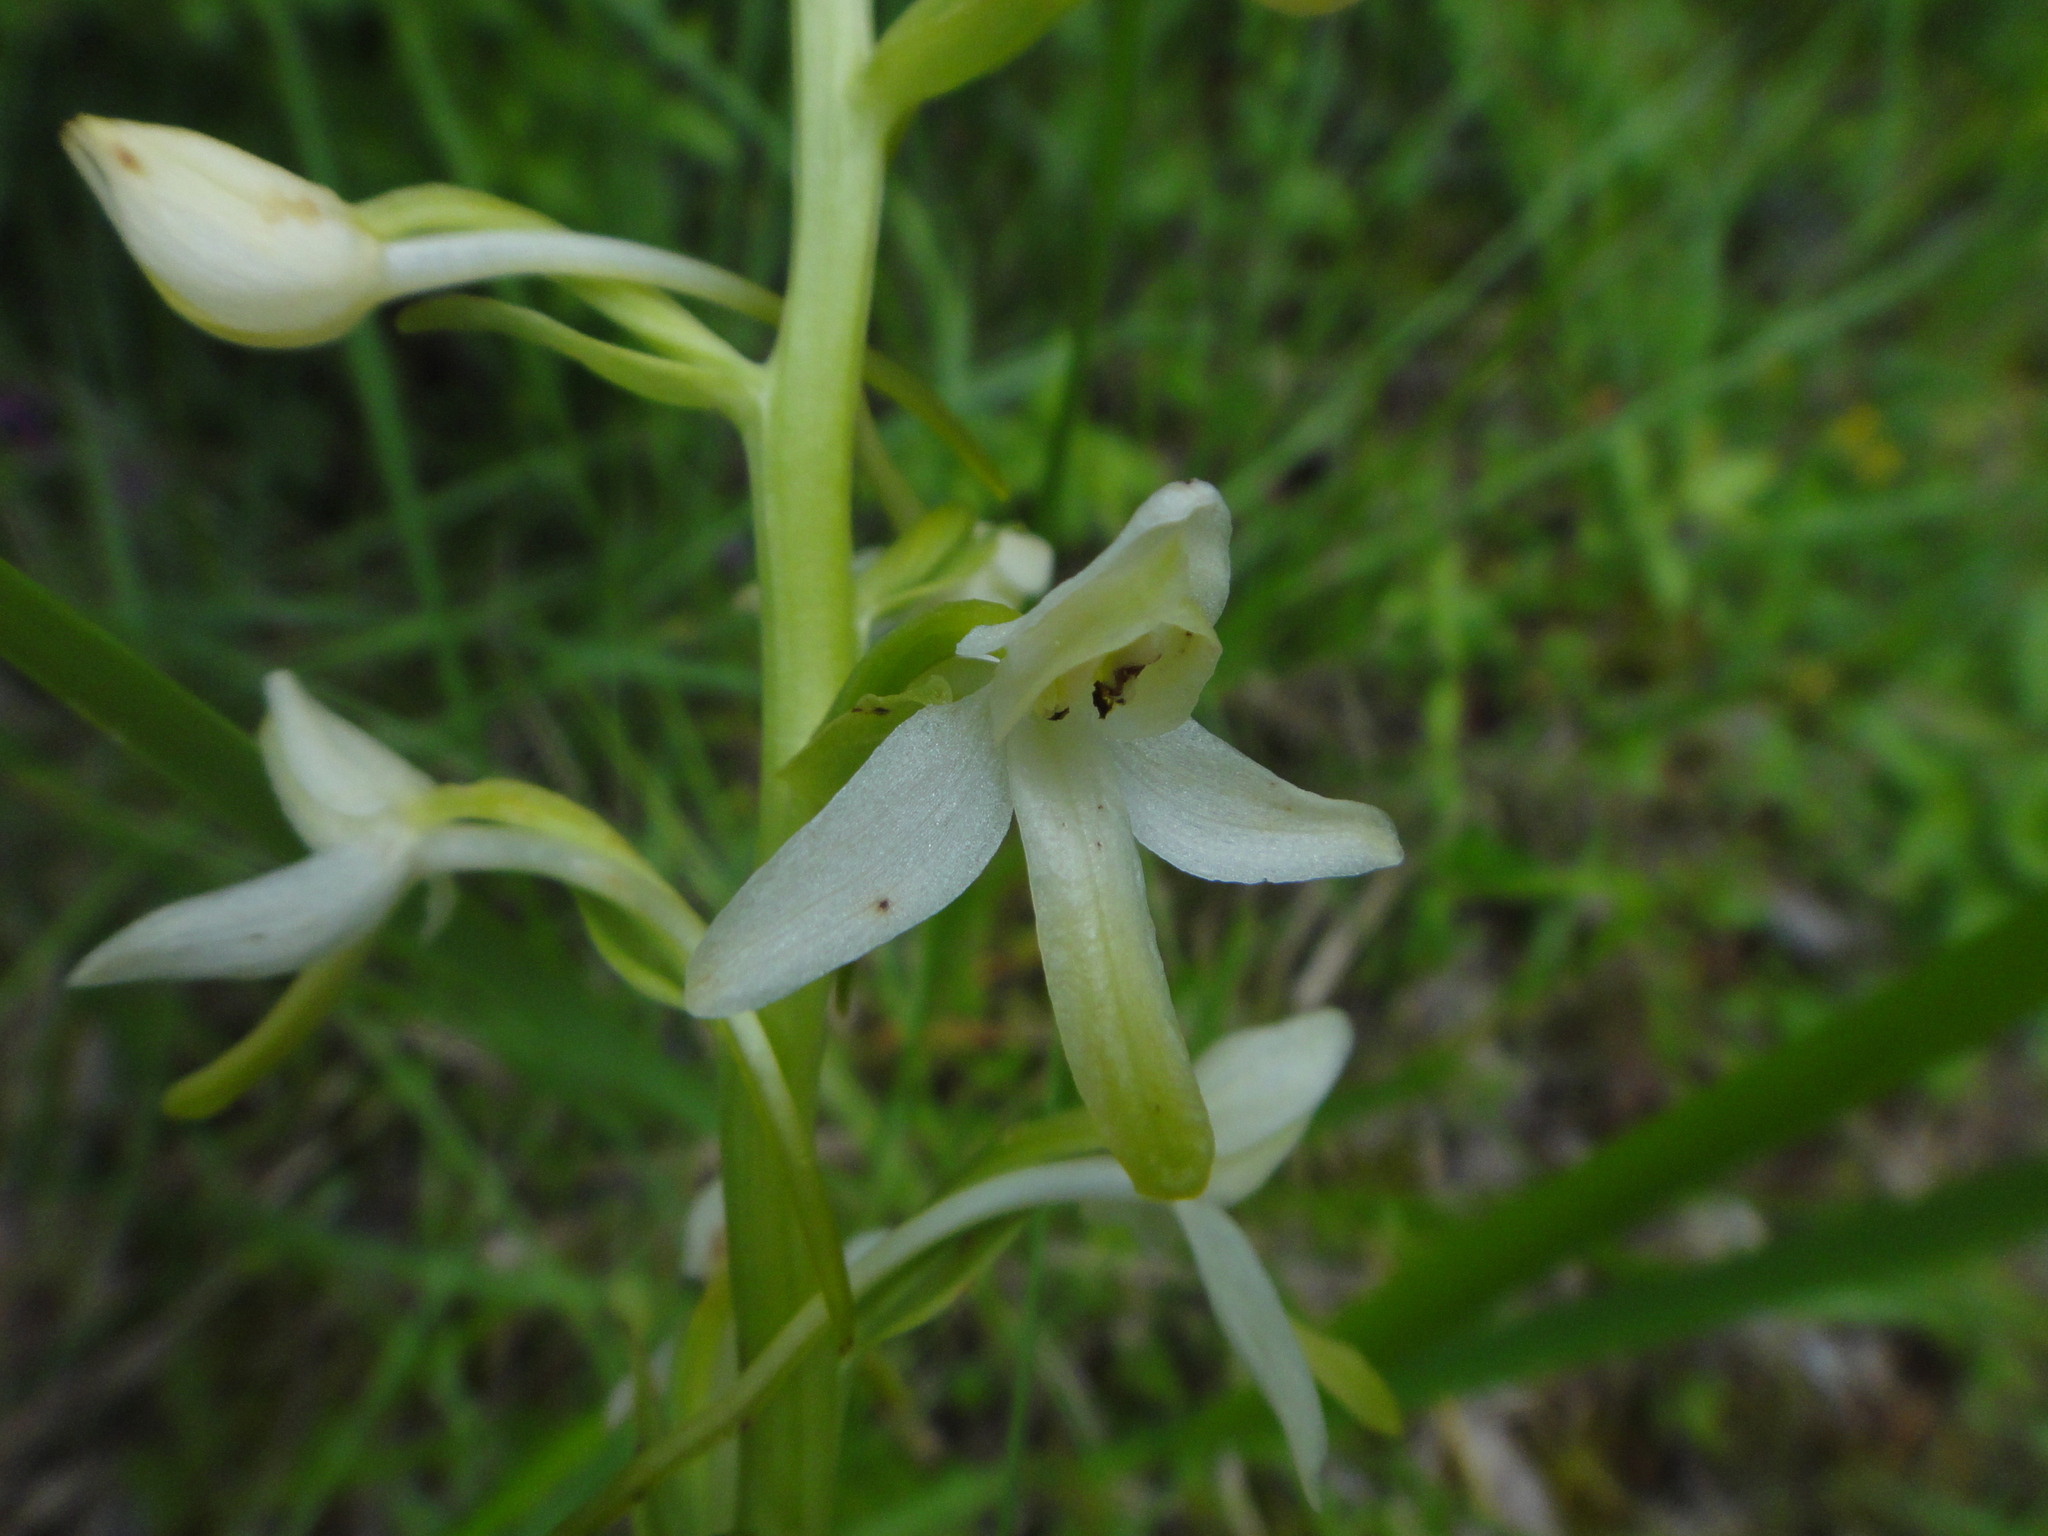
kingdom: Plantae
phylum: Tracheophyta
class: Liliopsida
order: Asparagales
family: Orchidaceae
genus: Platanthera
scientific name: Platanthera bifolia
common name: Lesser butterfly-orchid
